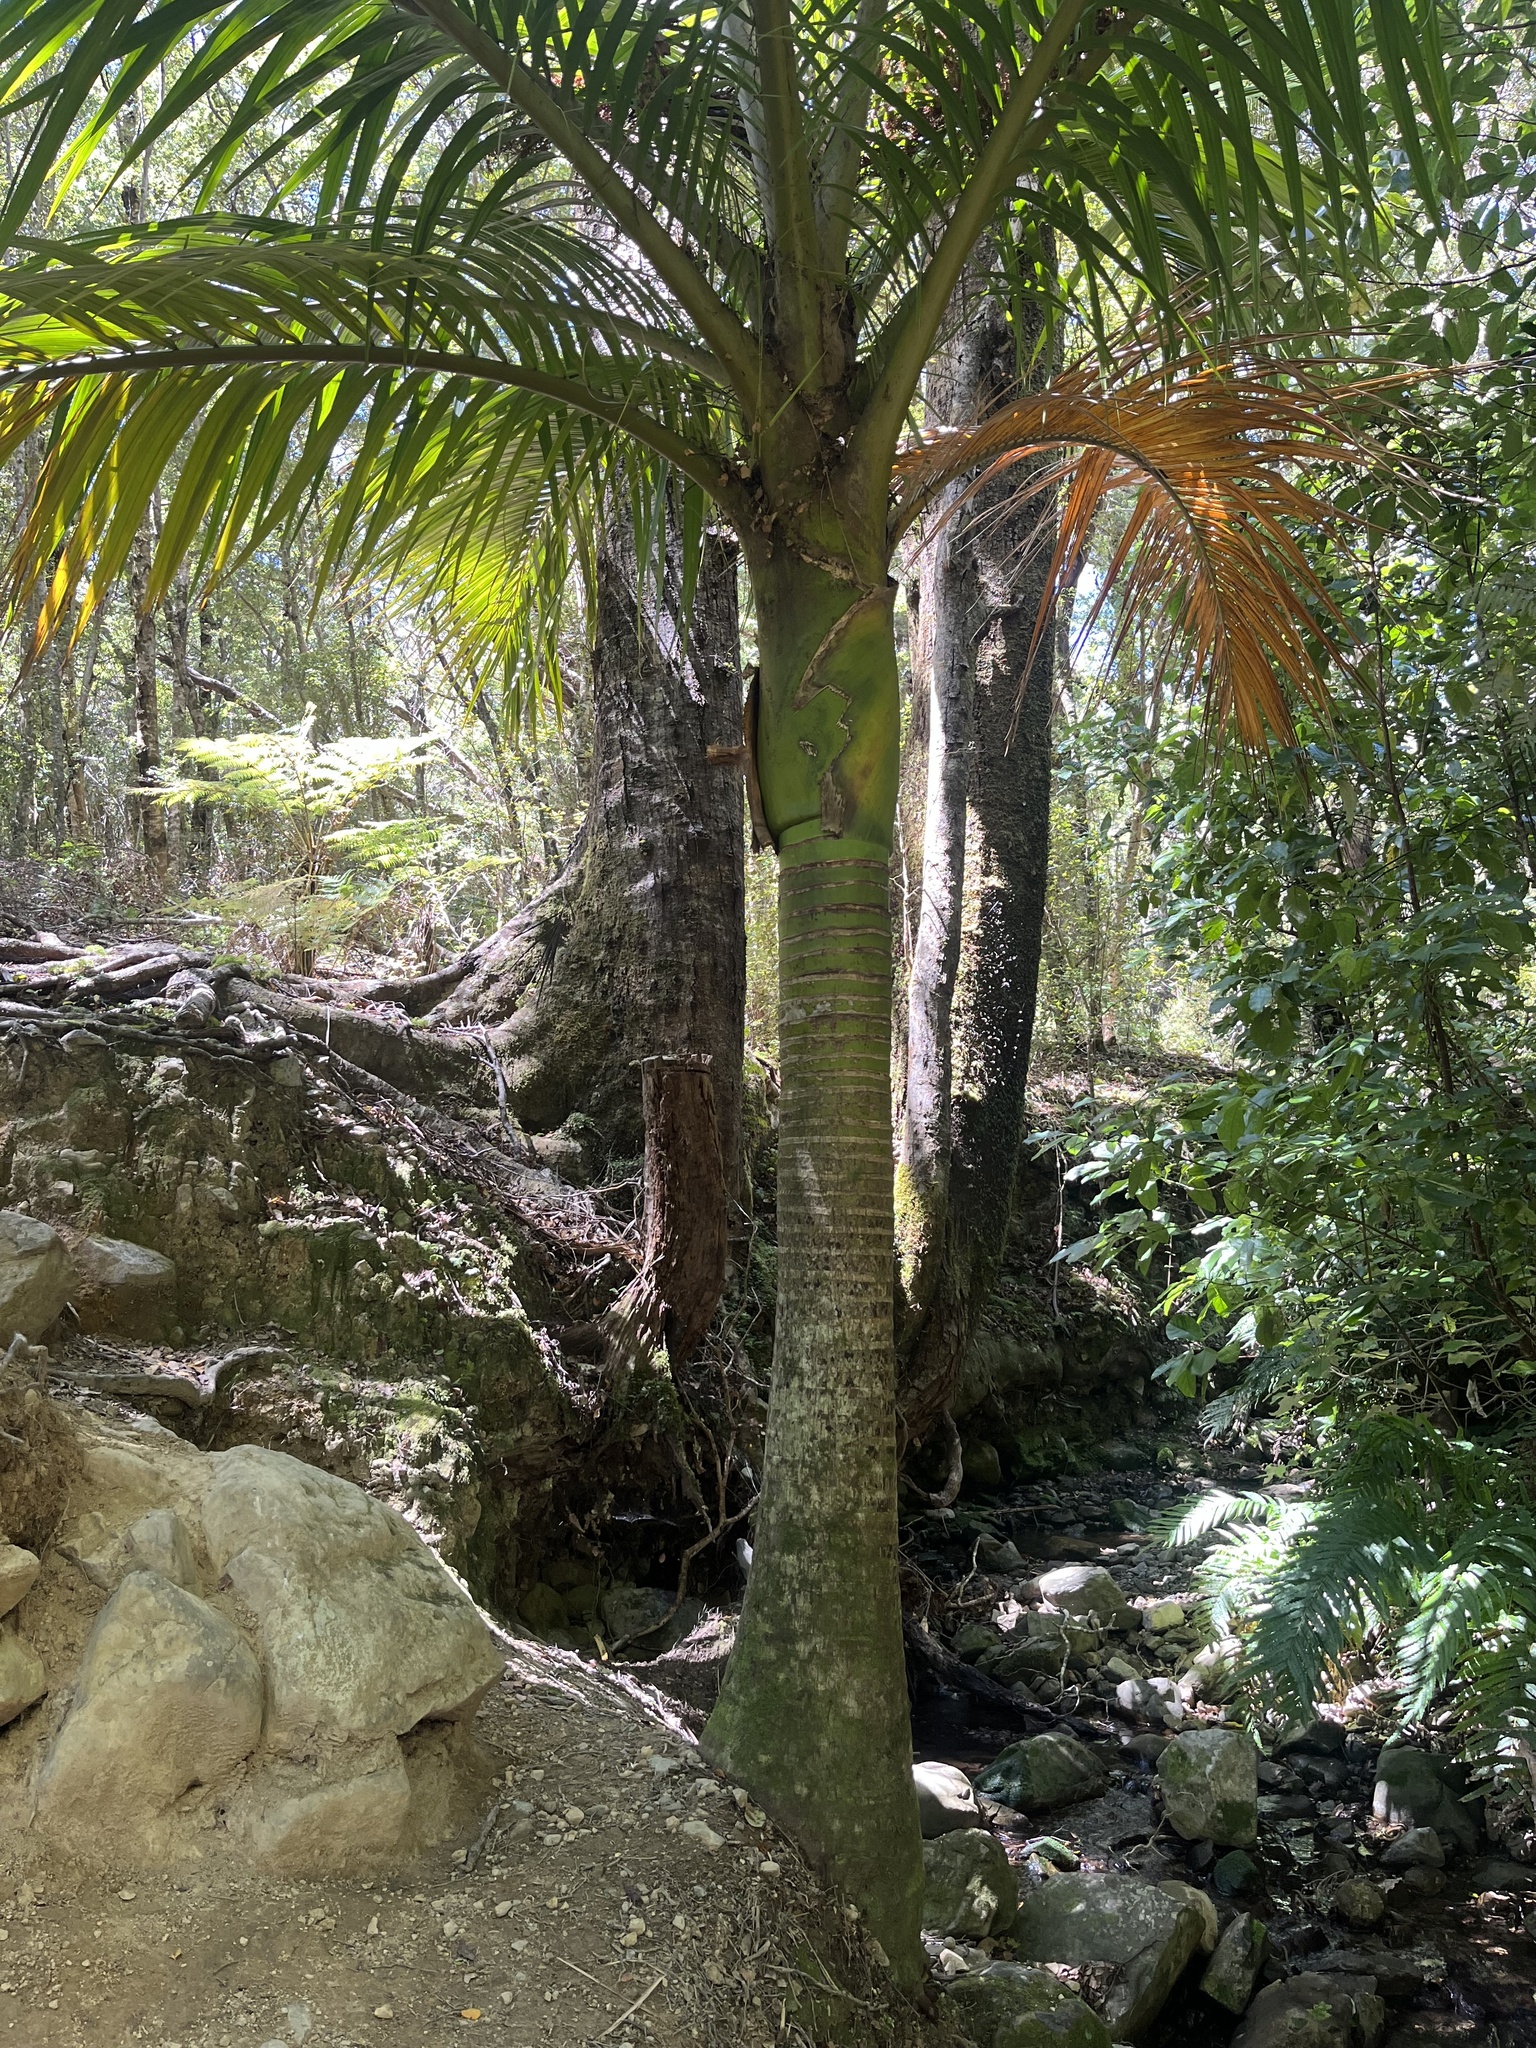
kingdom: Plantae
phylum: Tracheophyta
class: Liliopsida
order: Arecales
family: Arecaceae
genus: Rhopalostylis
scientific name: Rhopalostylis sapida
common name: Feather-duster palm
